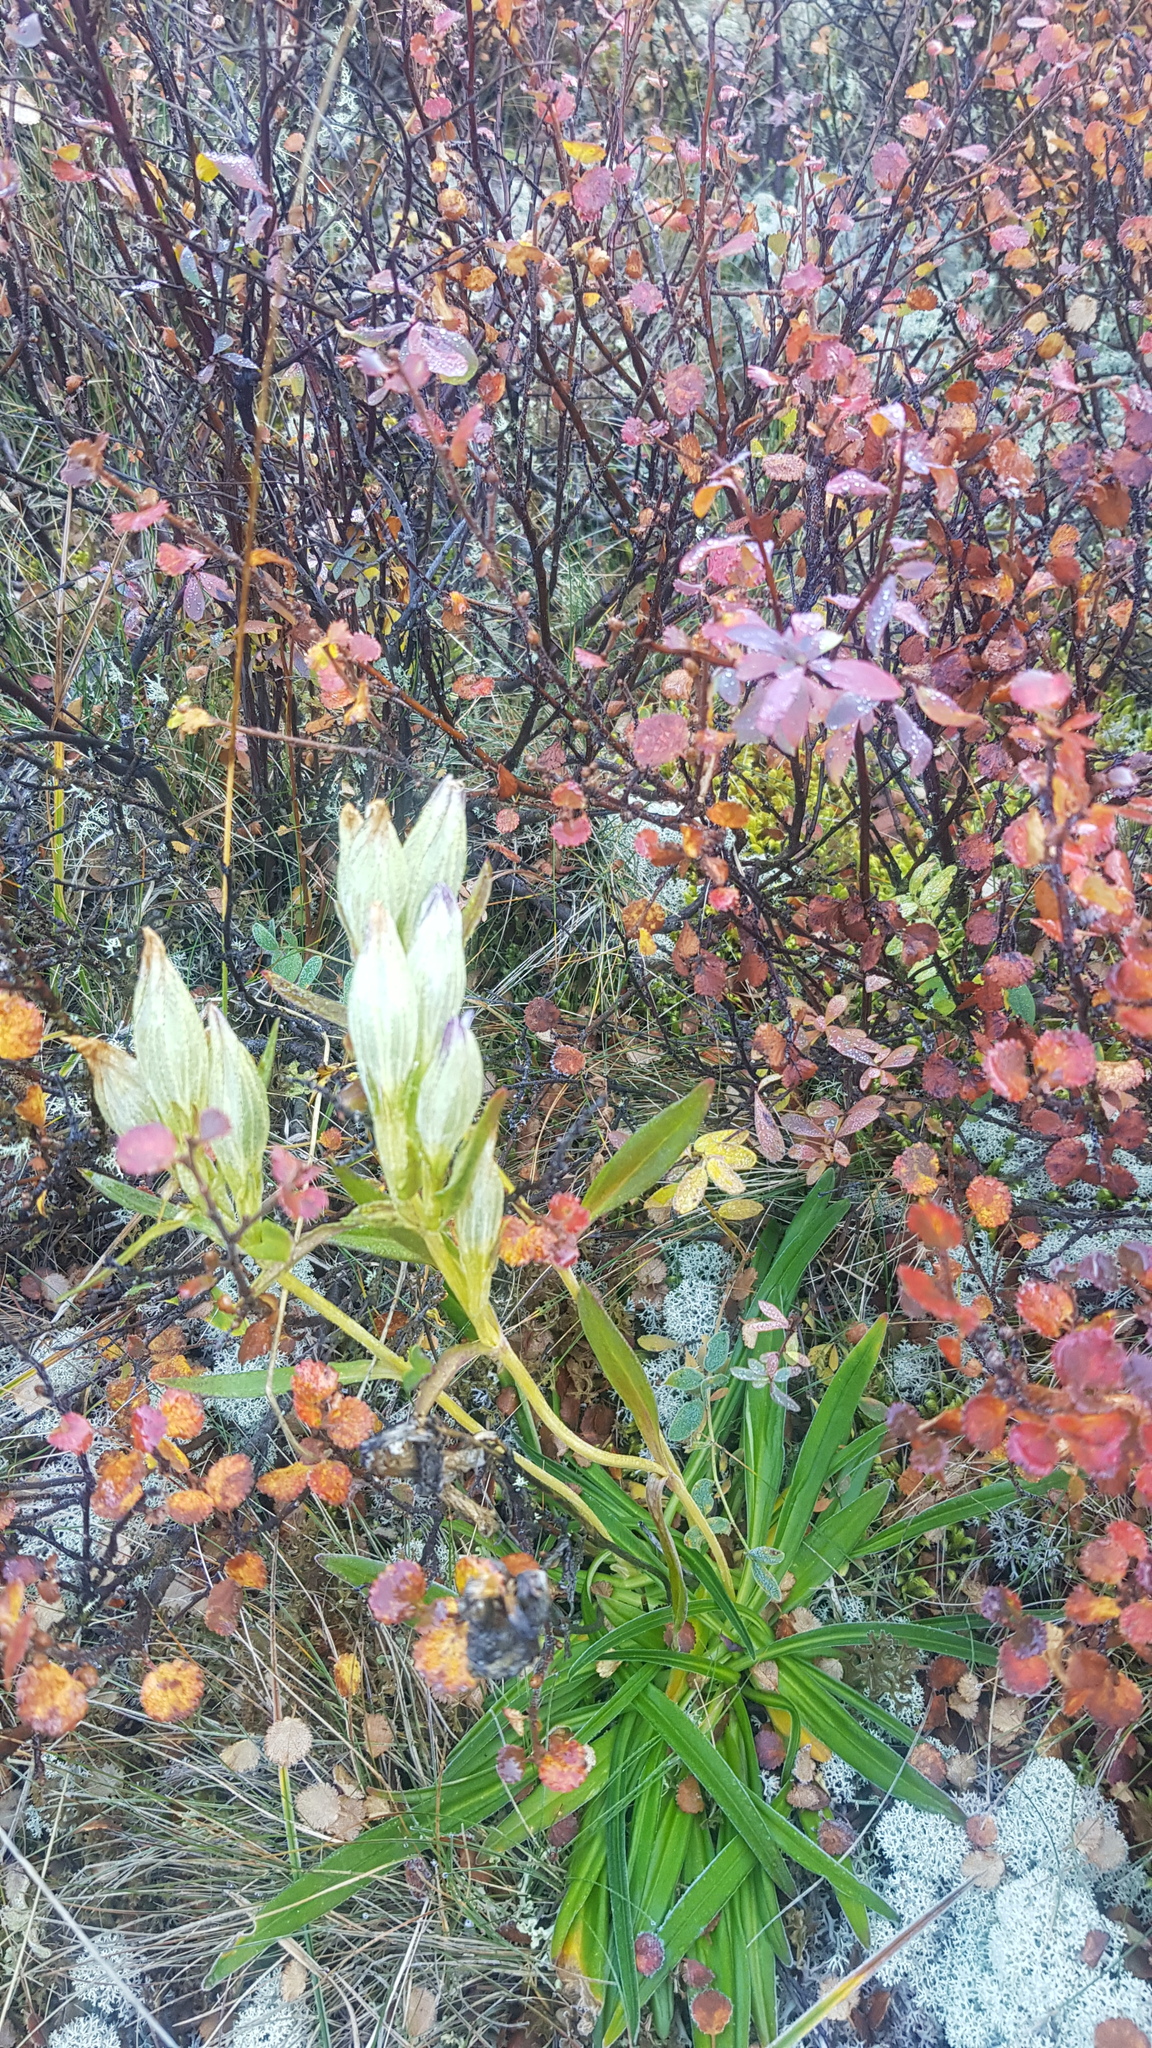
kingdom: Plantae
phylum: Tracheophyta
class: Magnoliopsida
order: Gentianales
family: Gentianaceae
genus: Gentiana
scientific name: Gentiana algida
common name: Arctic gentian
